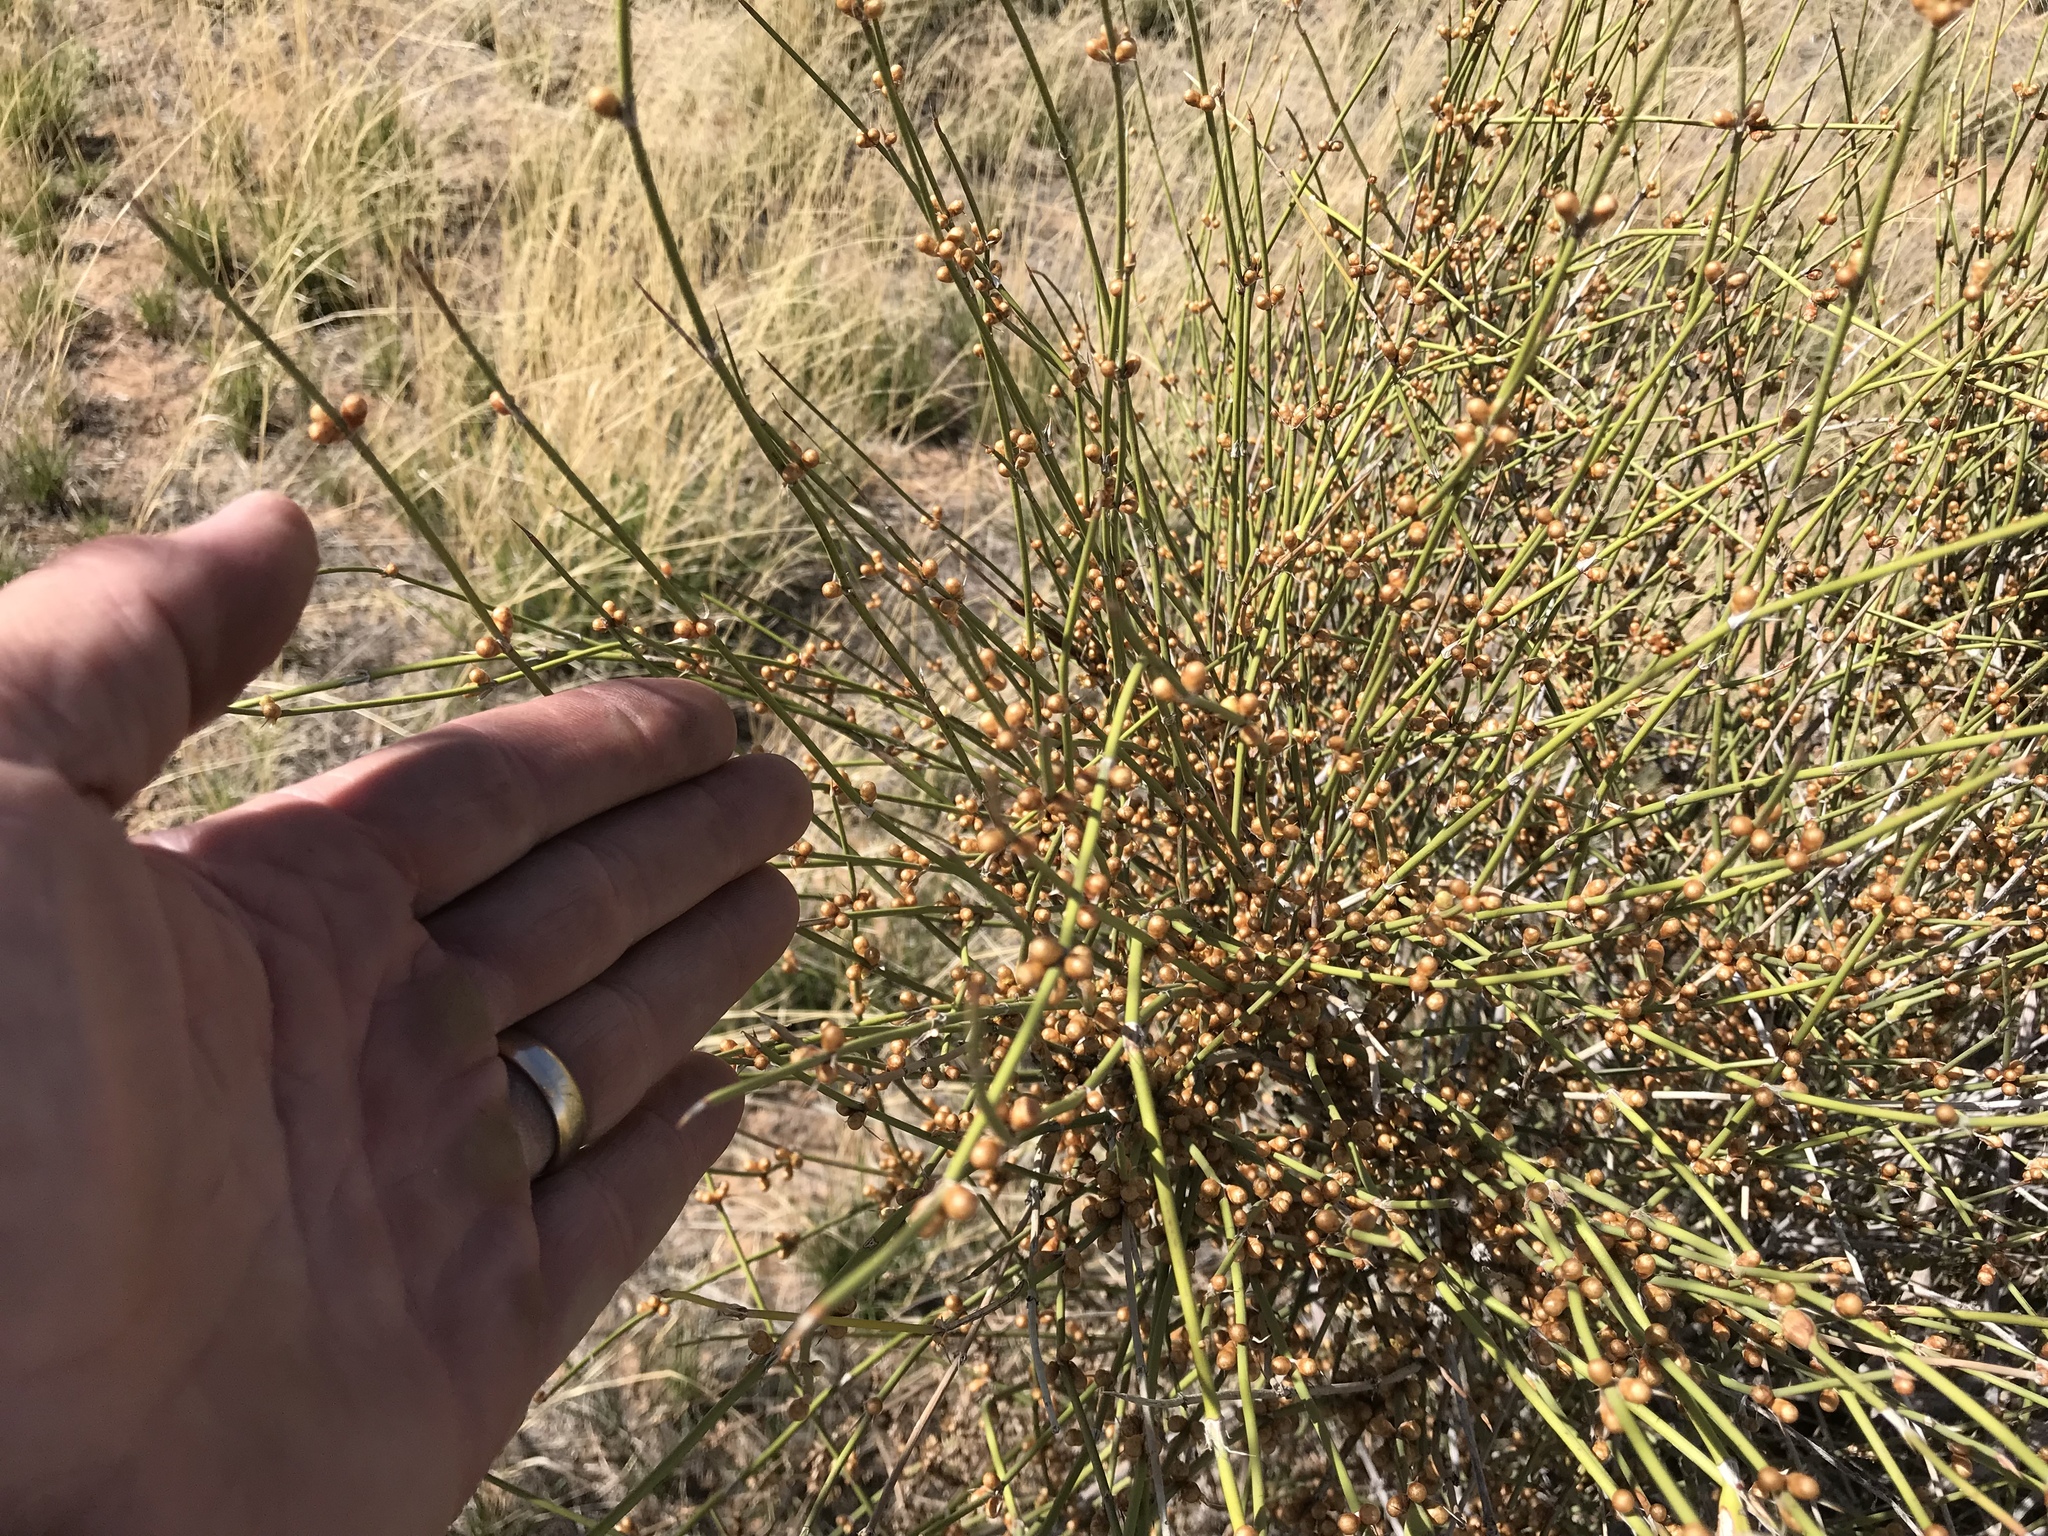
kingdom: Plantae
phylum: Tracheophyta
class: Gnetopsida
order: Ephedrales
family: Ephedraceae
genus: Ephedra
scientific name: Ephedra trifurca
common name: Mexican-tea
